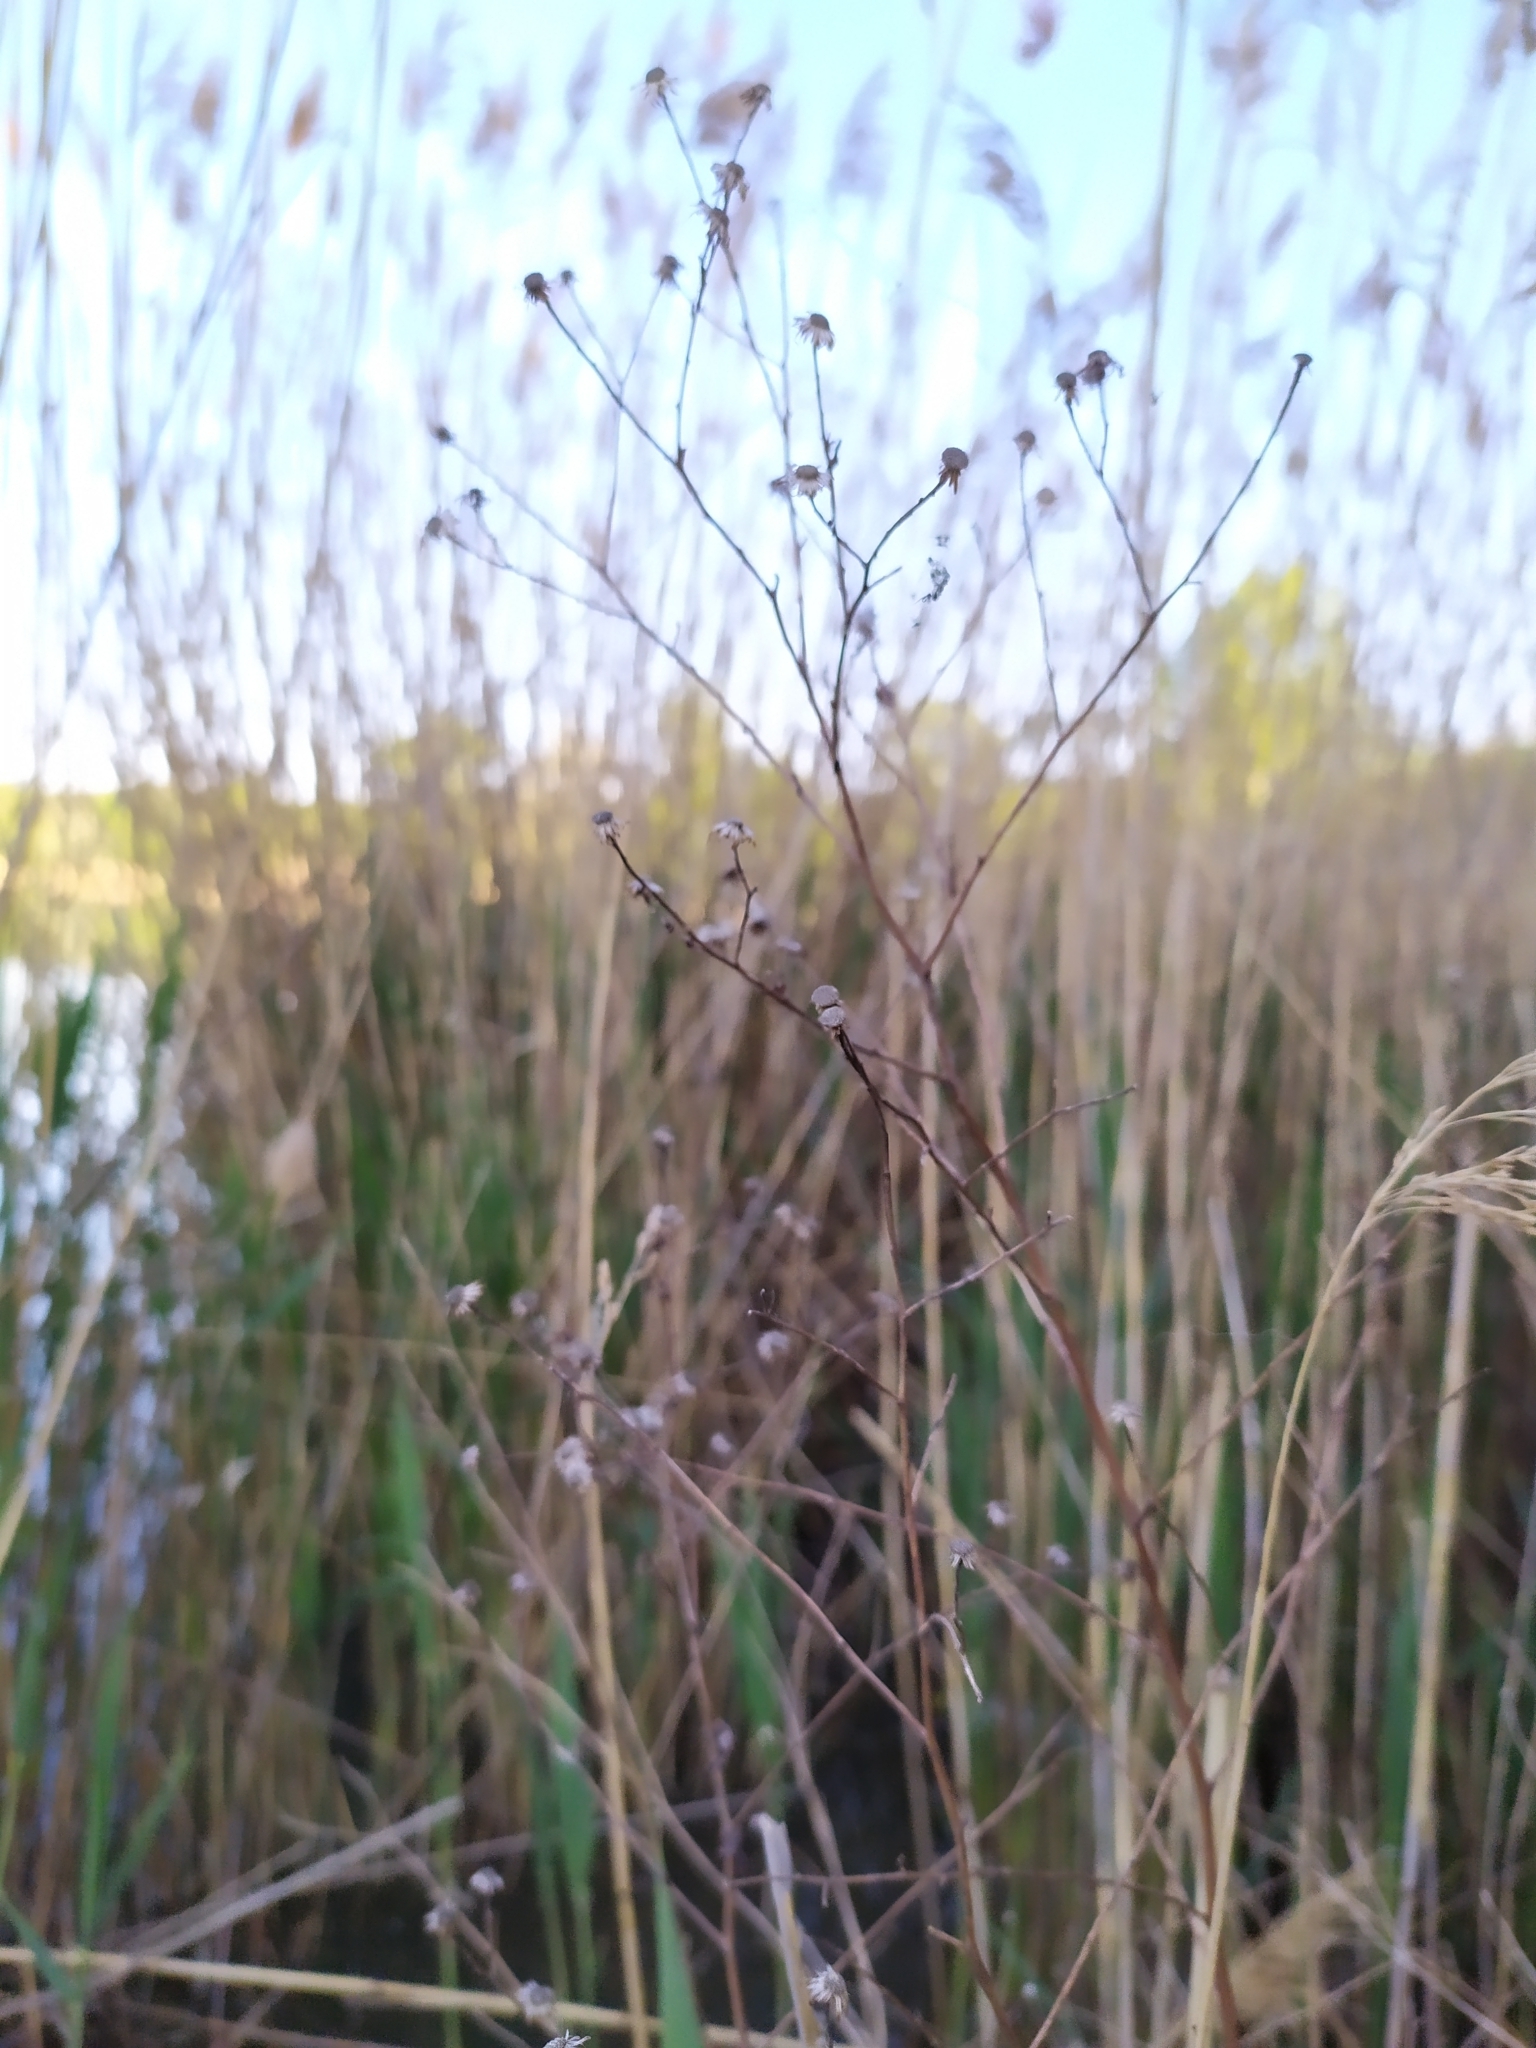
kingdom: Plantae
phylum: Tracheophyta
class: Magnoliopsida
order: Asterales
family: Asteraceae
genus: Pulicaria
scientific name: Pulicaria dysenterica
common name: Common fleabane
